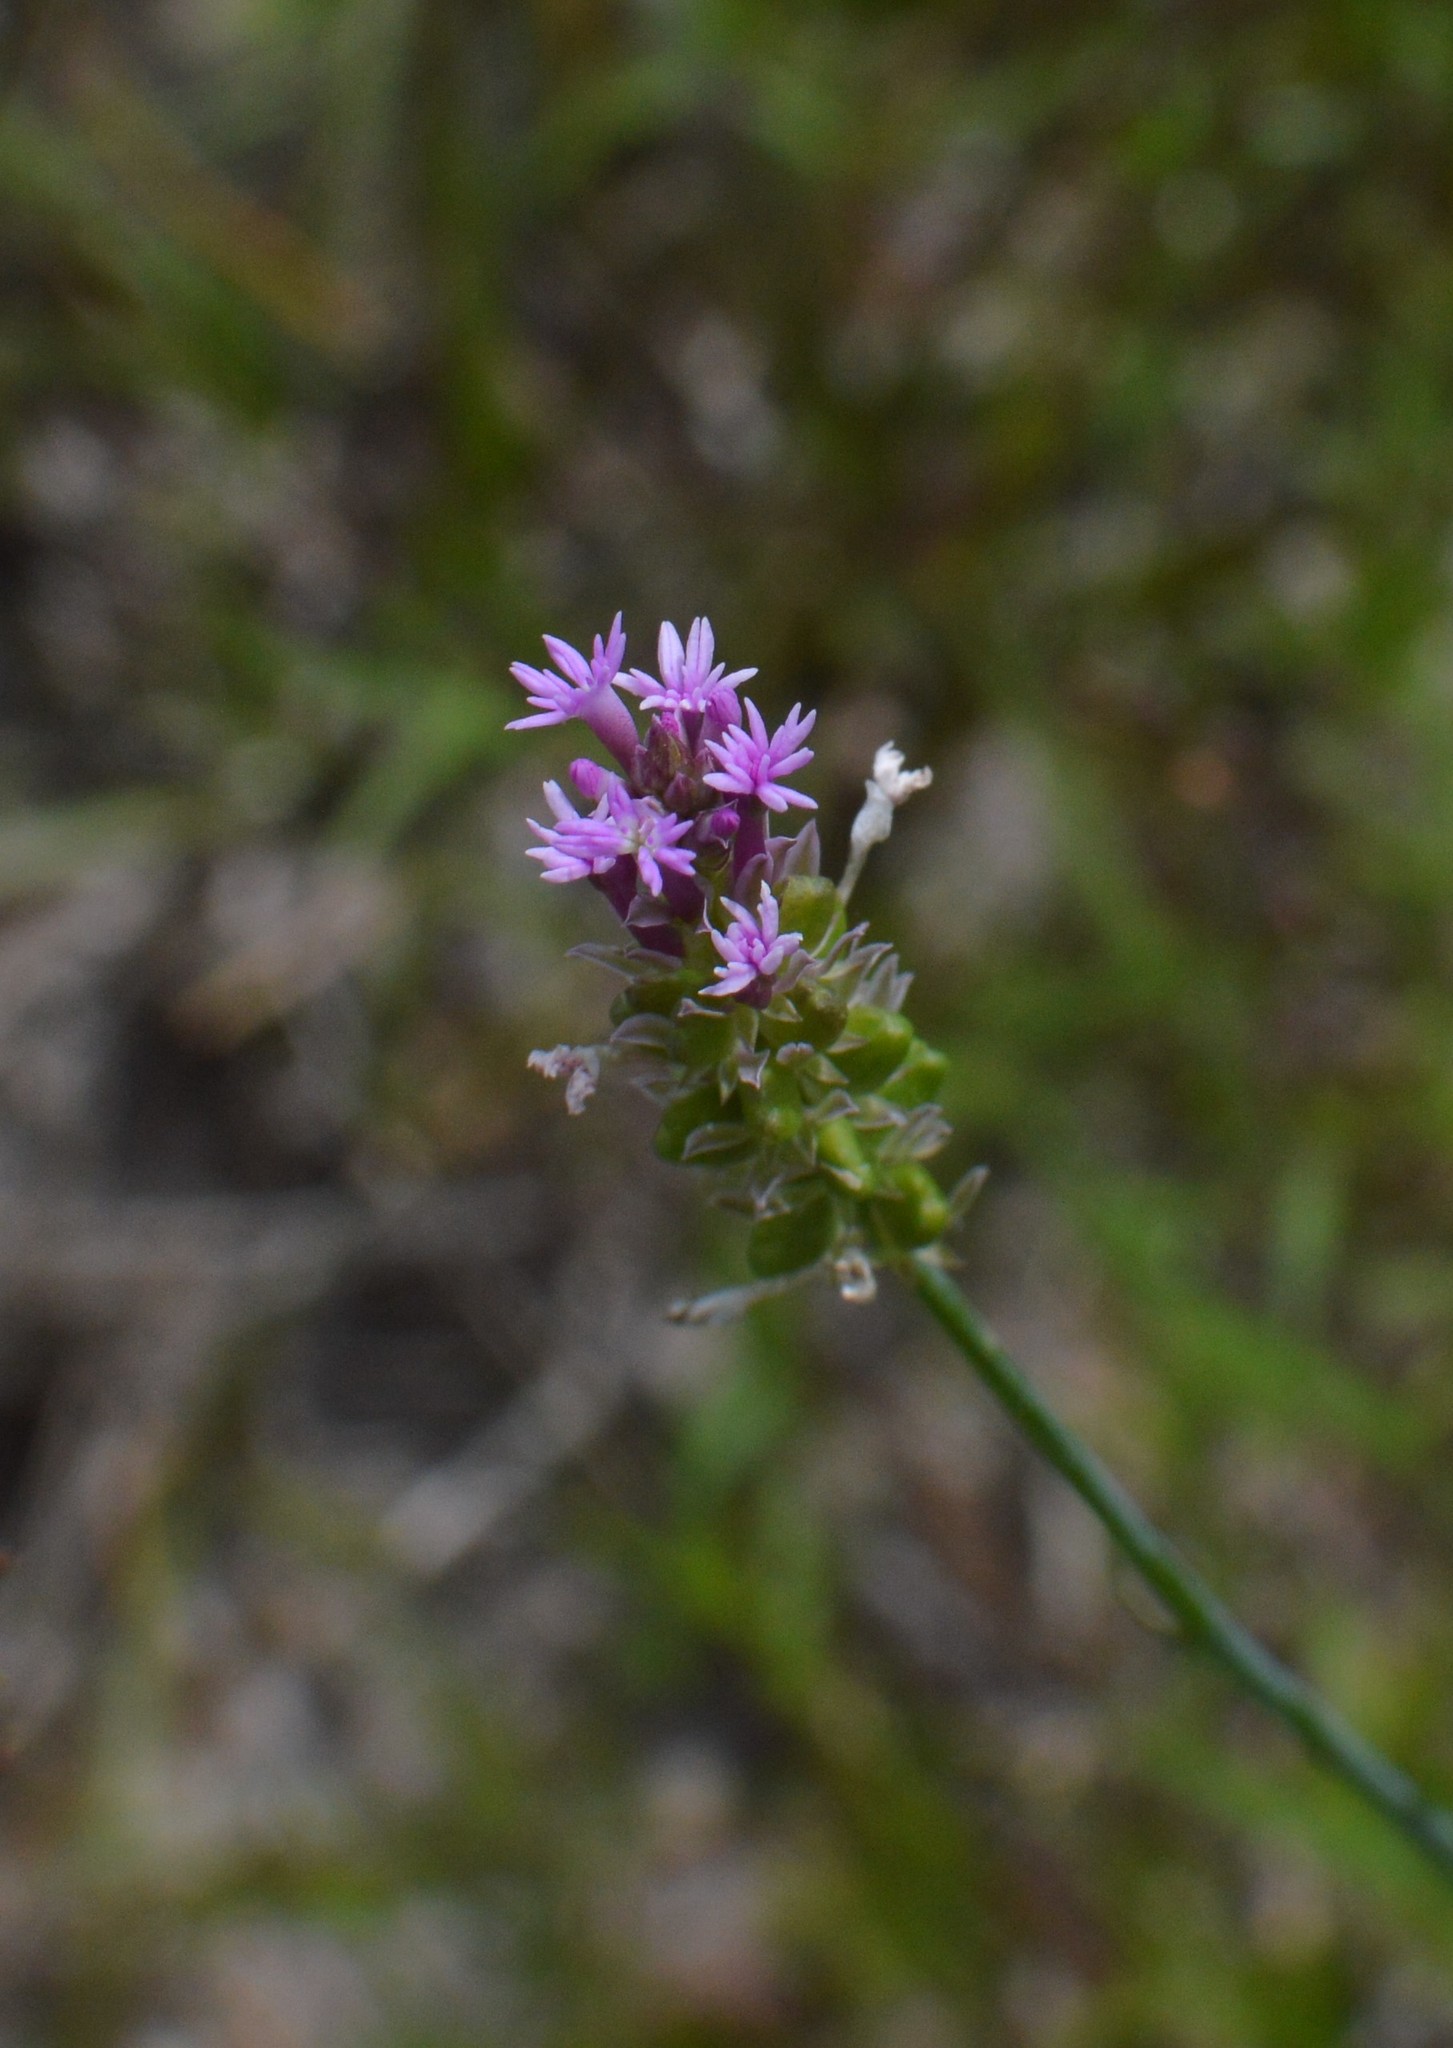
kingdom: Plantae
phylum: Tracheophyta
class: Magnoliopsida
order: Fabales
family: Polygalaceae
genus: Polygala
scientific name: Polygala incarnata
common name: Pink milkwort
